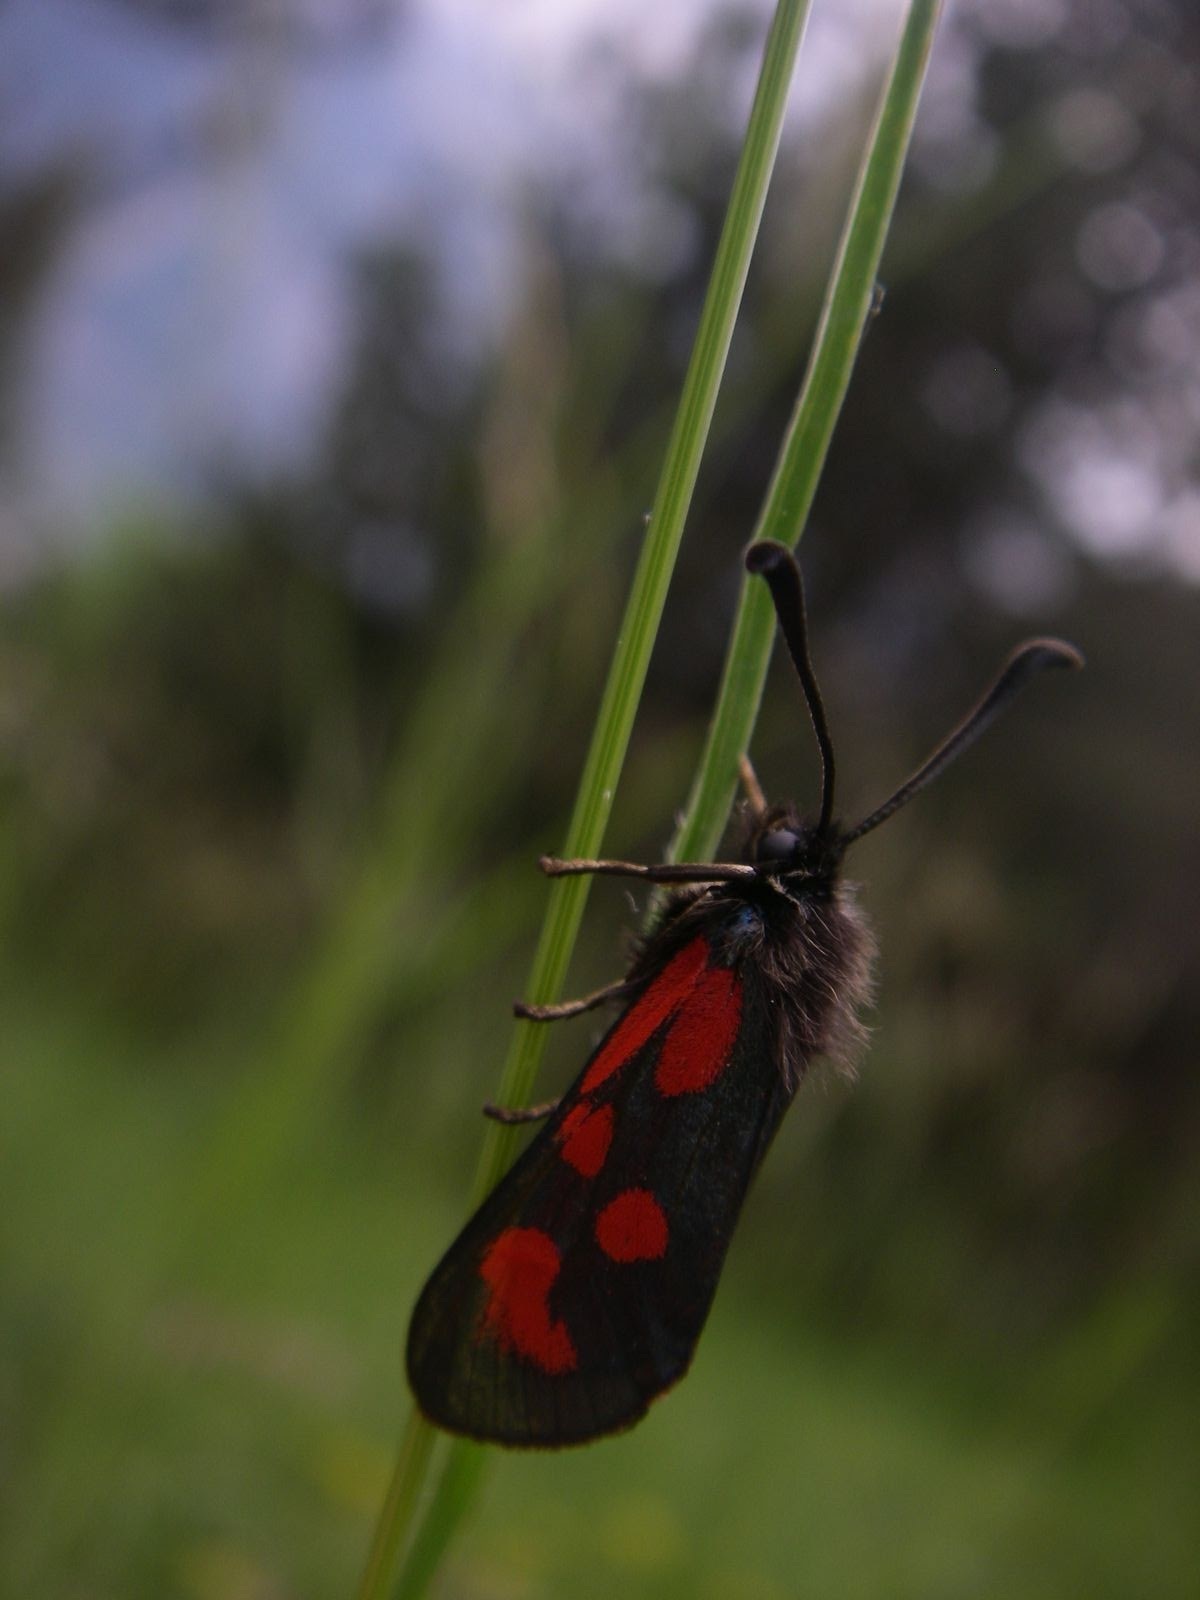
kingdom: Animalia
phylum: Arthropoda
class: Insecta
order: Lepidoptera
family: Zygaenidae
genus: Zygaena
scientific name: Zygaena loti
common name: Slender scotch burnet
